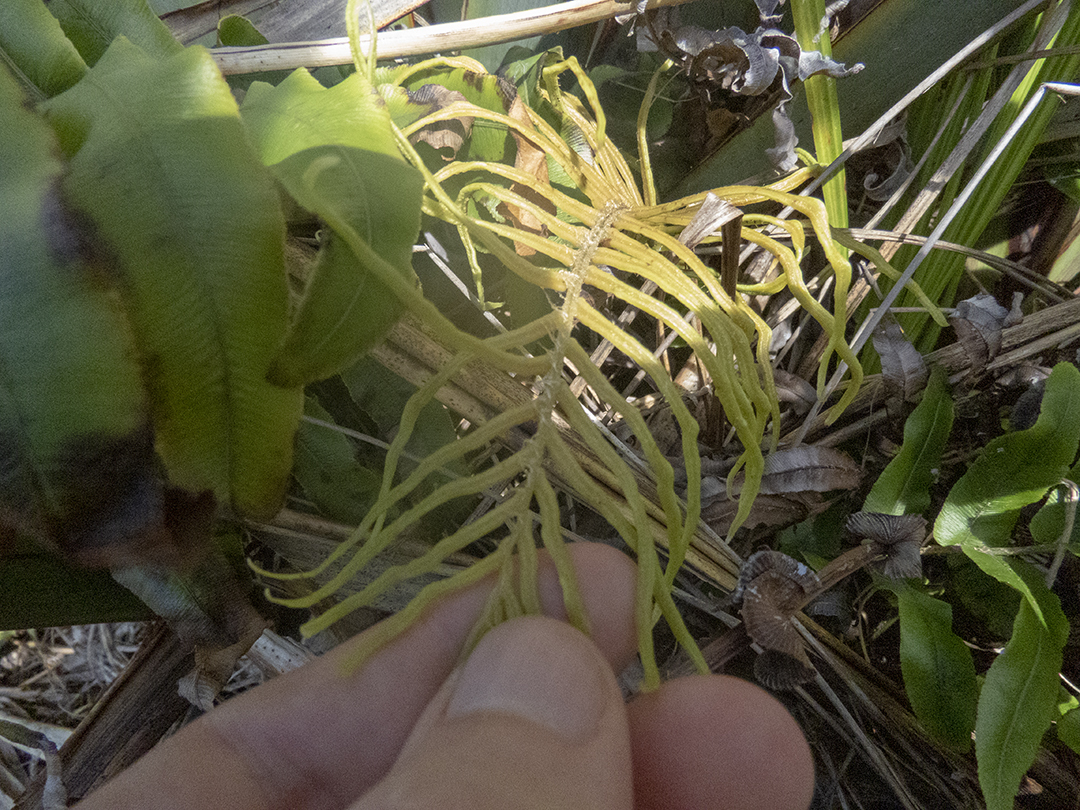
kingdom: Plantae
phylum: Tracheophyta
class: Polypodiopsida
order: Polypodiales
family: Blechnaceae
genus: Parablechnum
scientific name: Parablechnum novae-zelandiae
